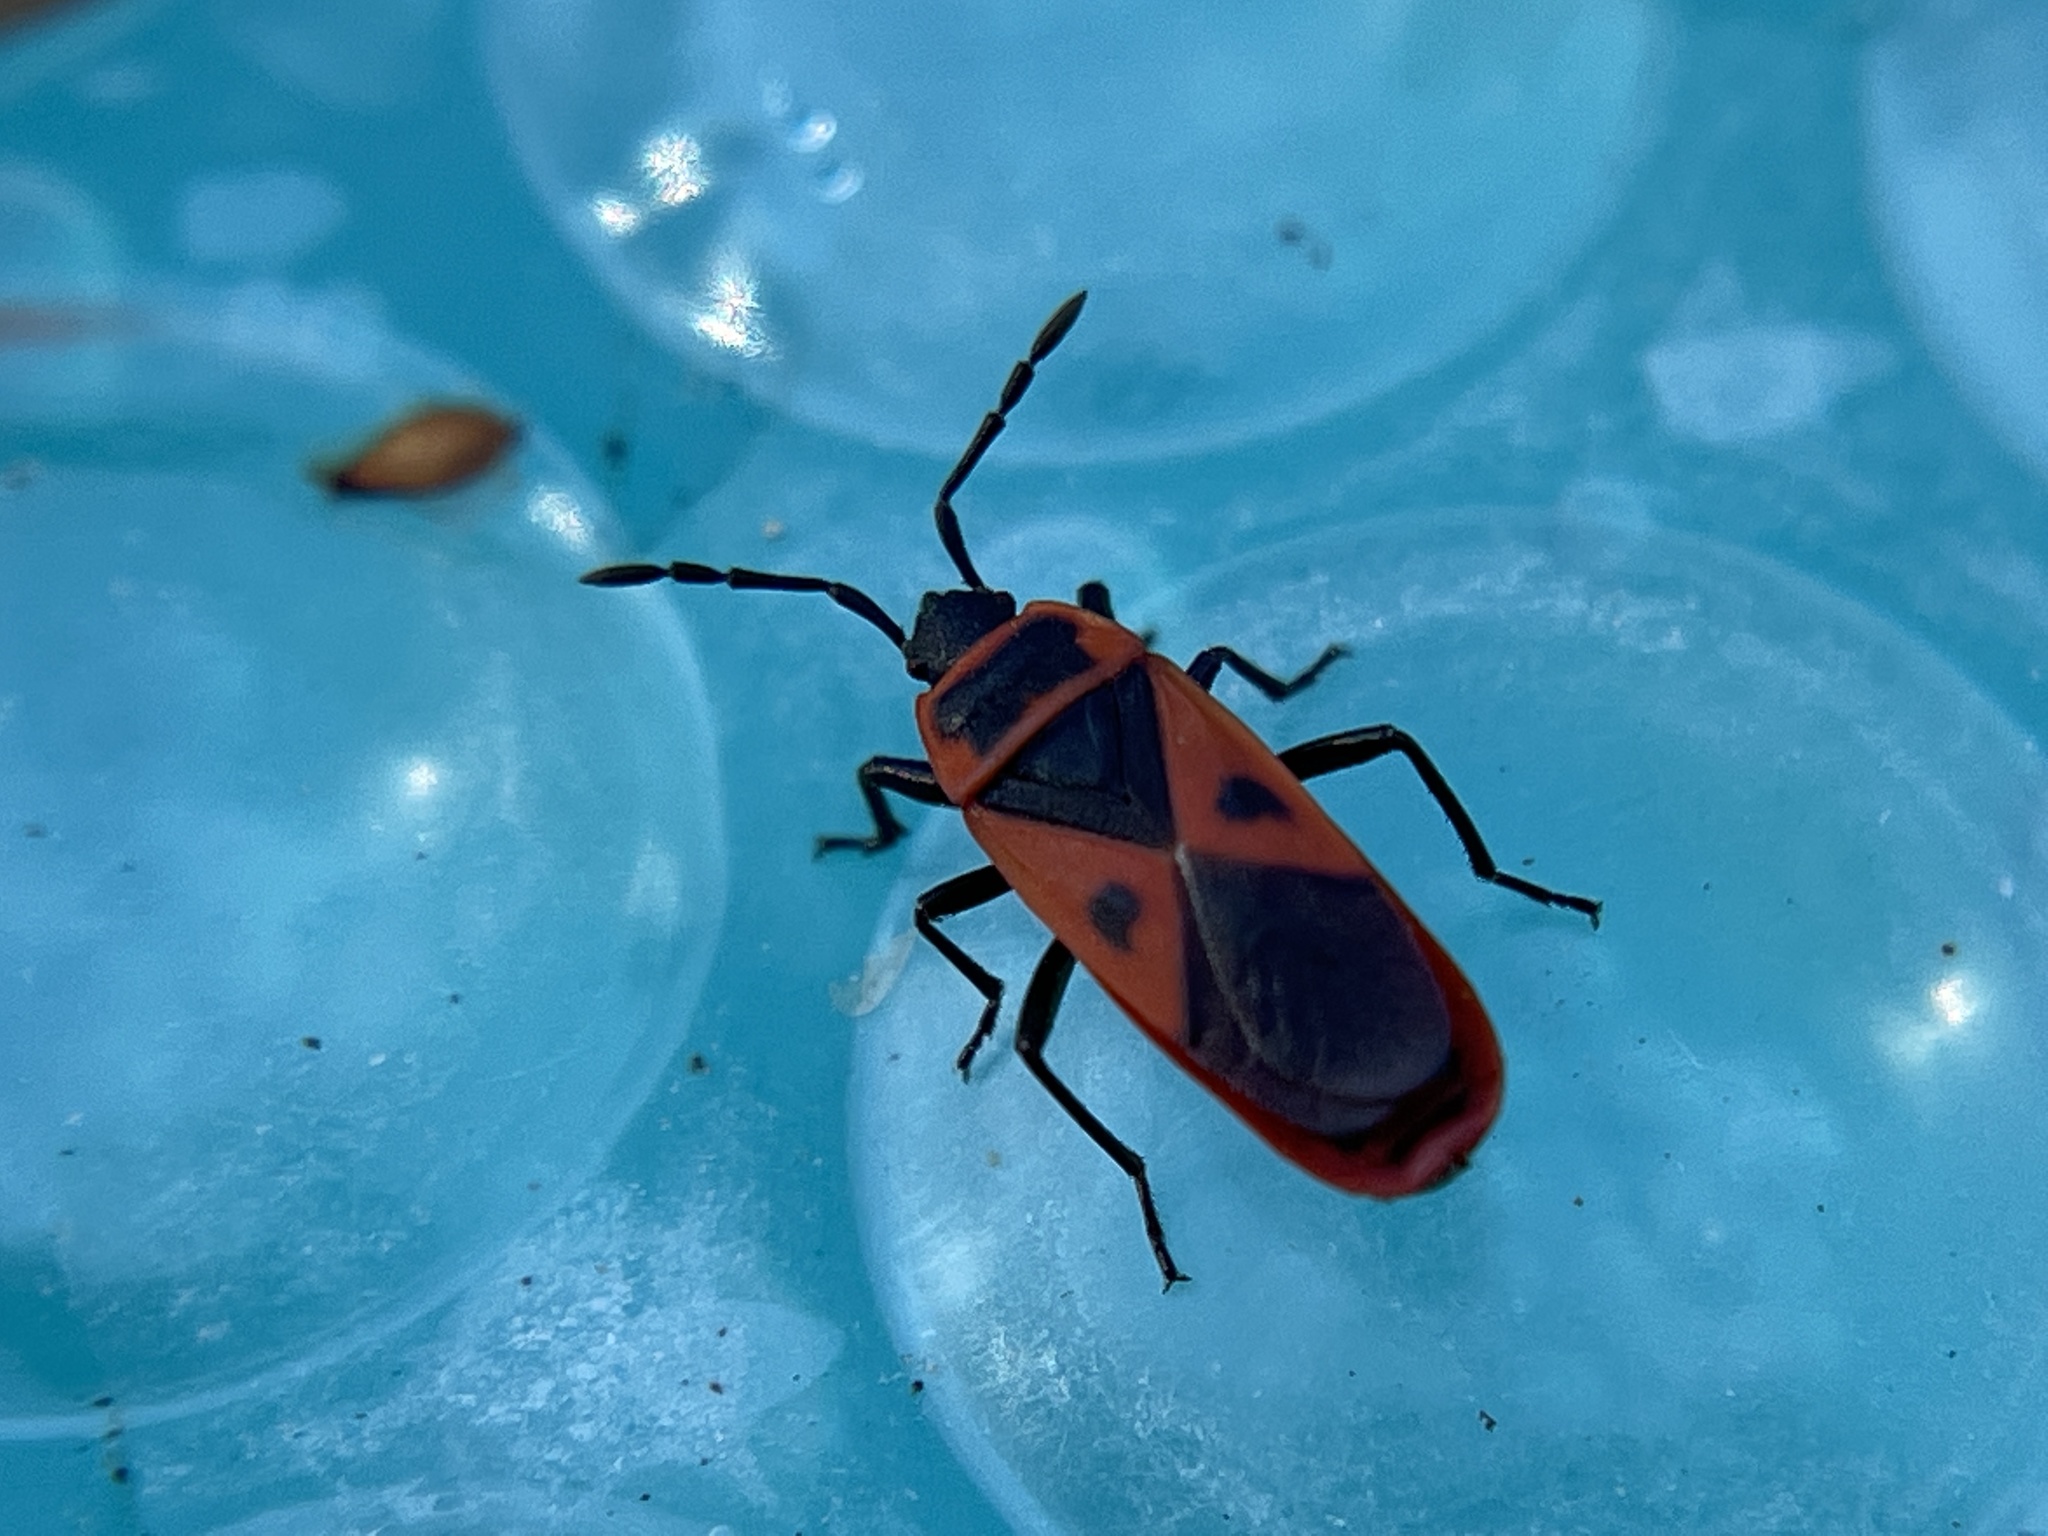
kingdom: Animalia
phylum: Arthropoda
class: Insecta
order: Hemiptera
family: Pyrrhocoridae
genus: Scantius
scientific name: Scantius aegyptius
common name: Red bug
